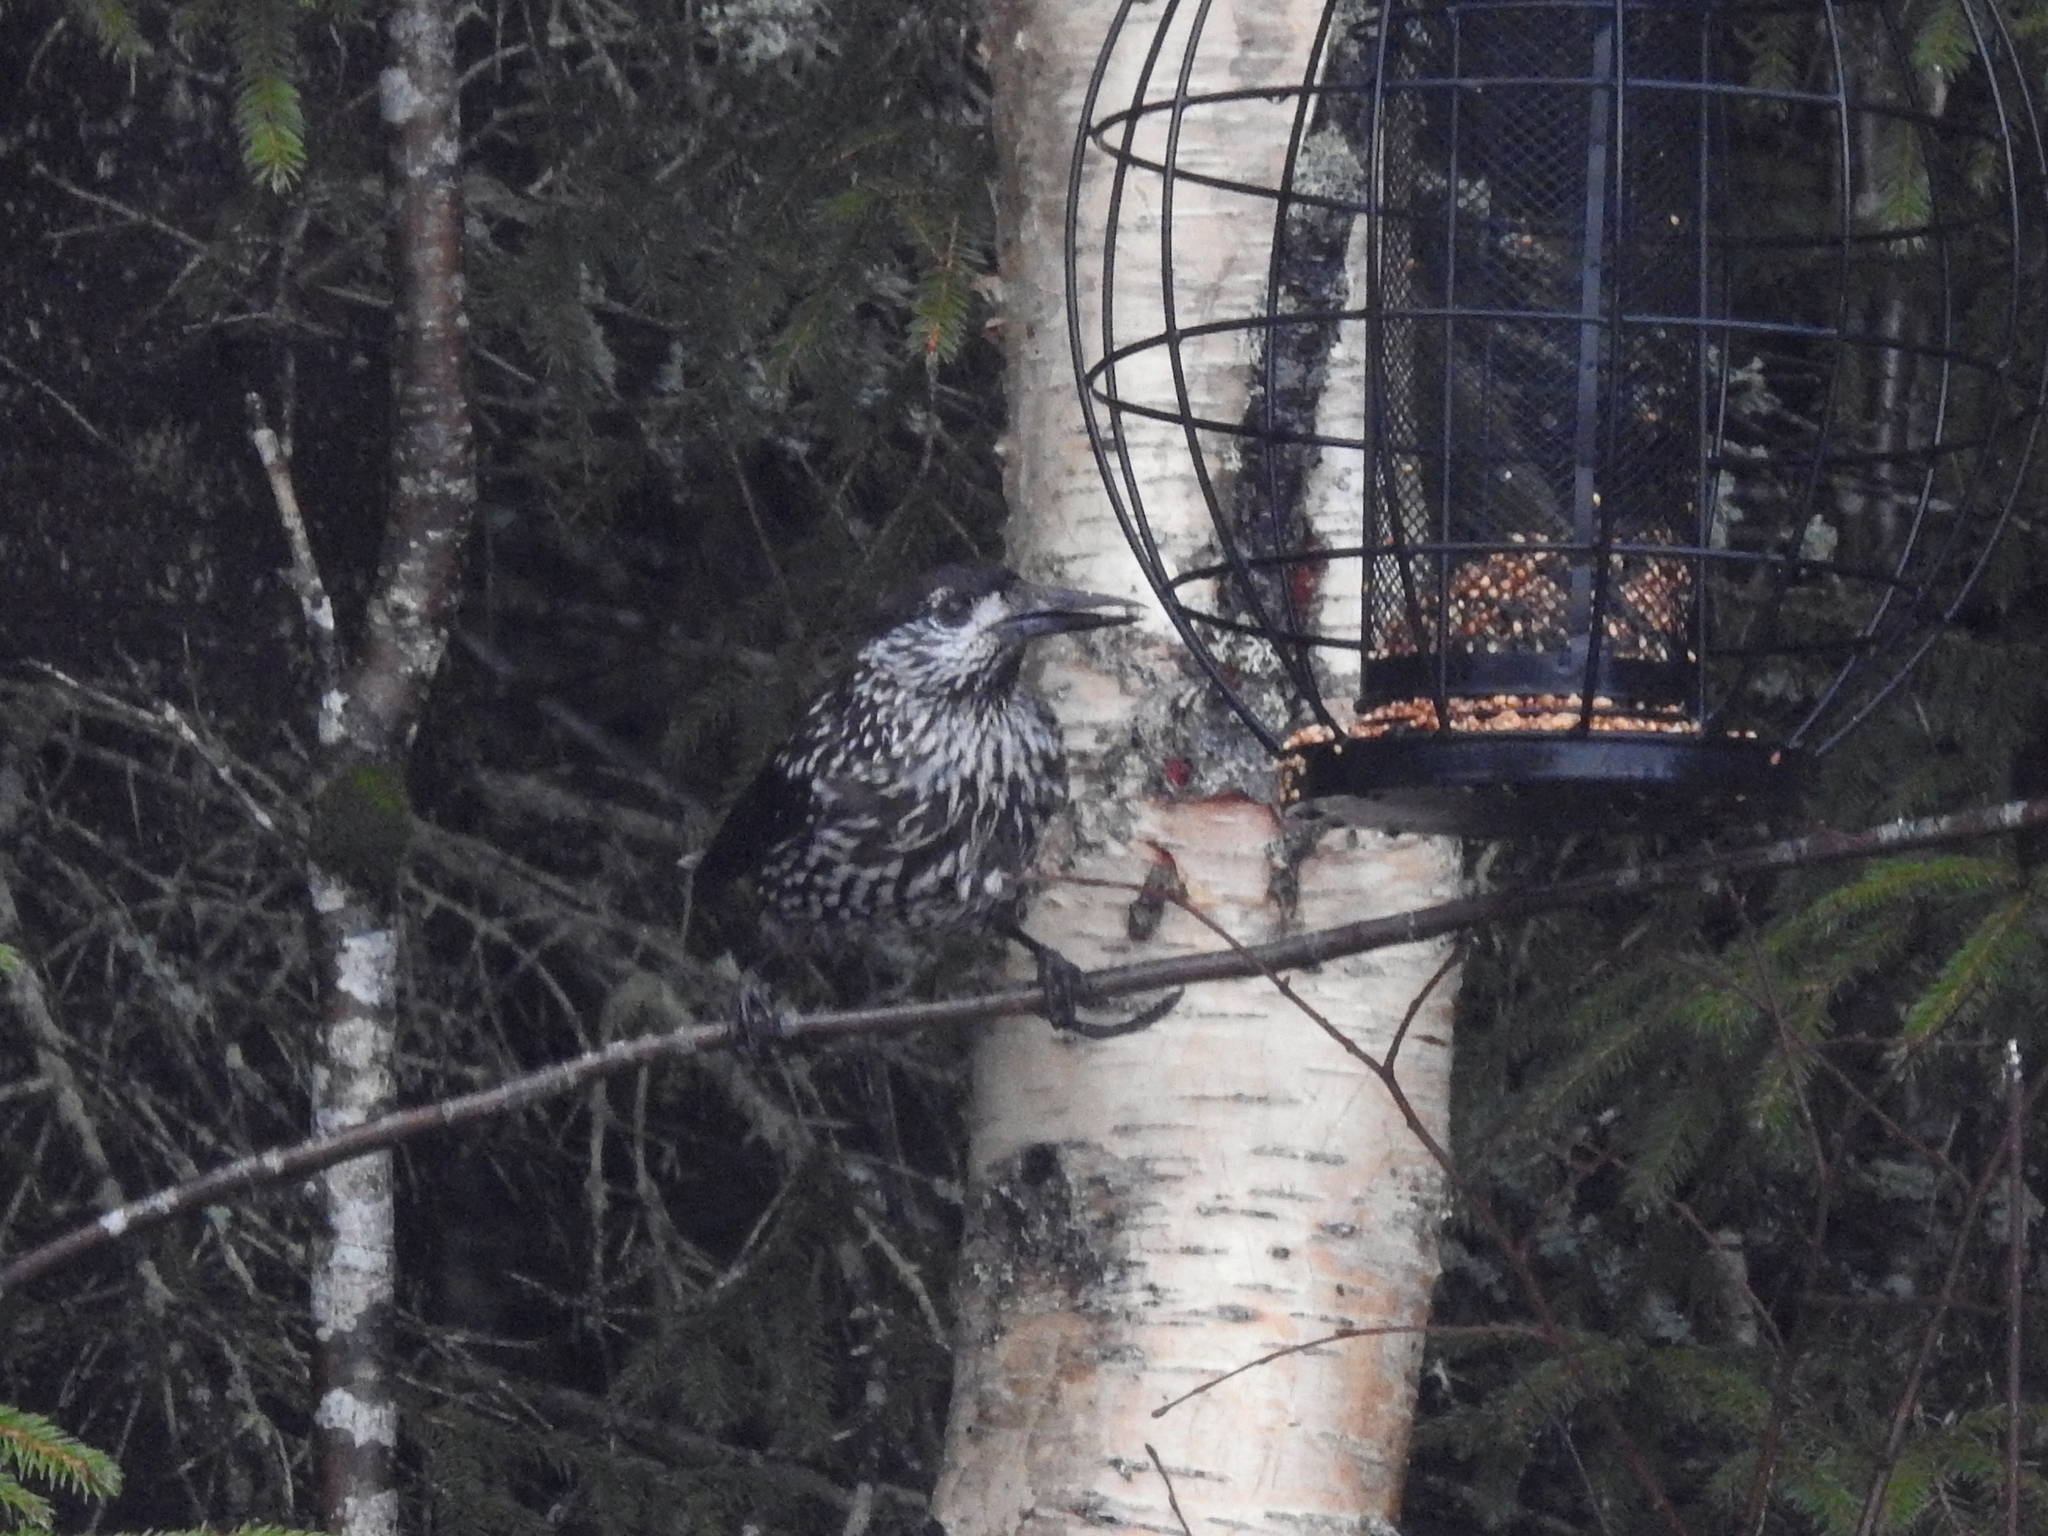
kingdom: Animalia
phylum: Chordata
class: Aves
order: Passeriformes
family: Corvidae
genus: Nucifraga
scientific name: Nucifraga caryocatactes
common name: Spotted nutcracker
